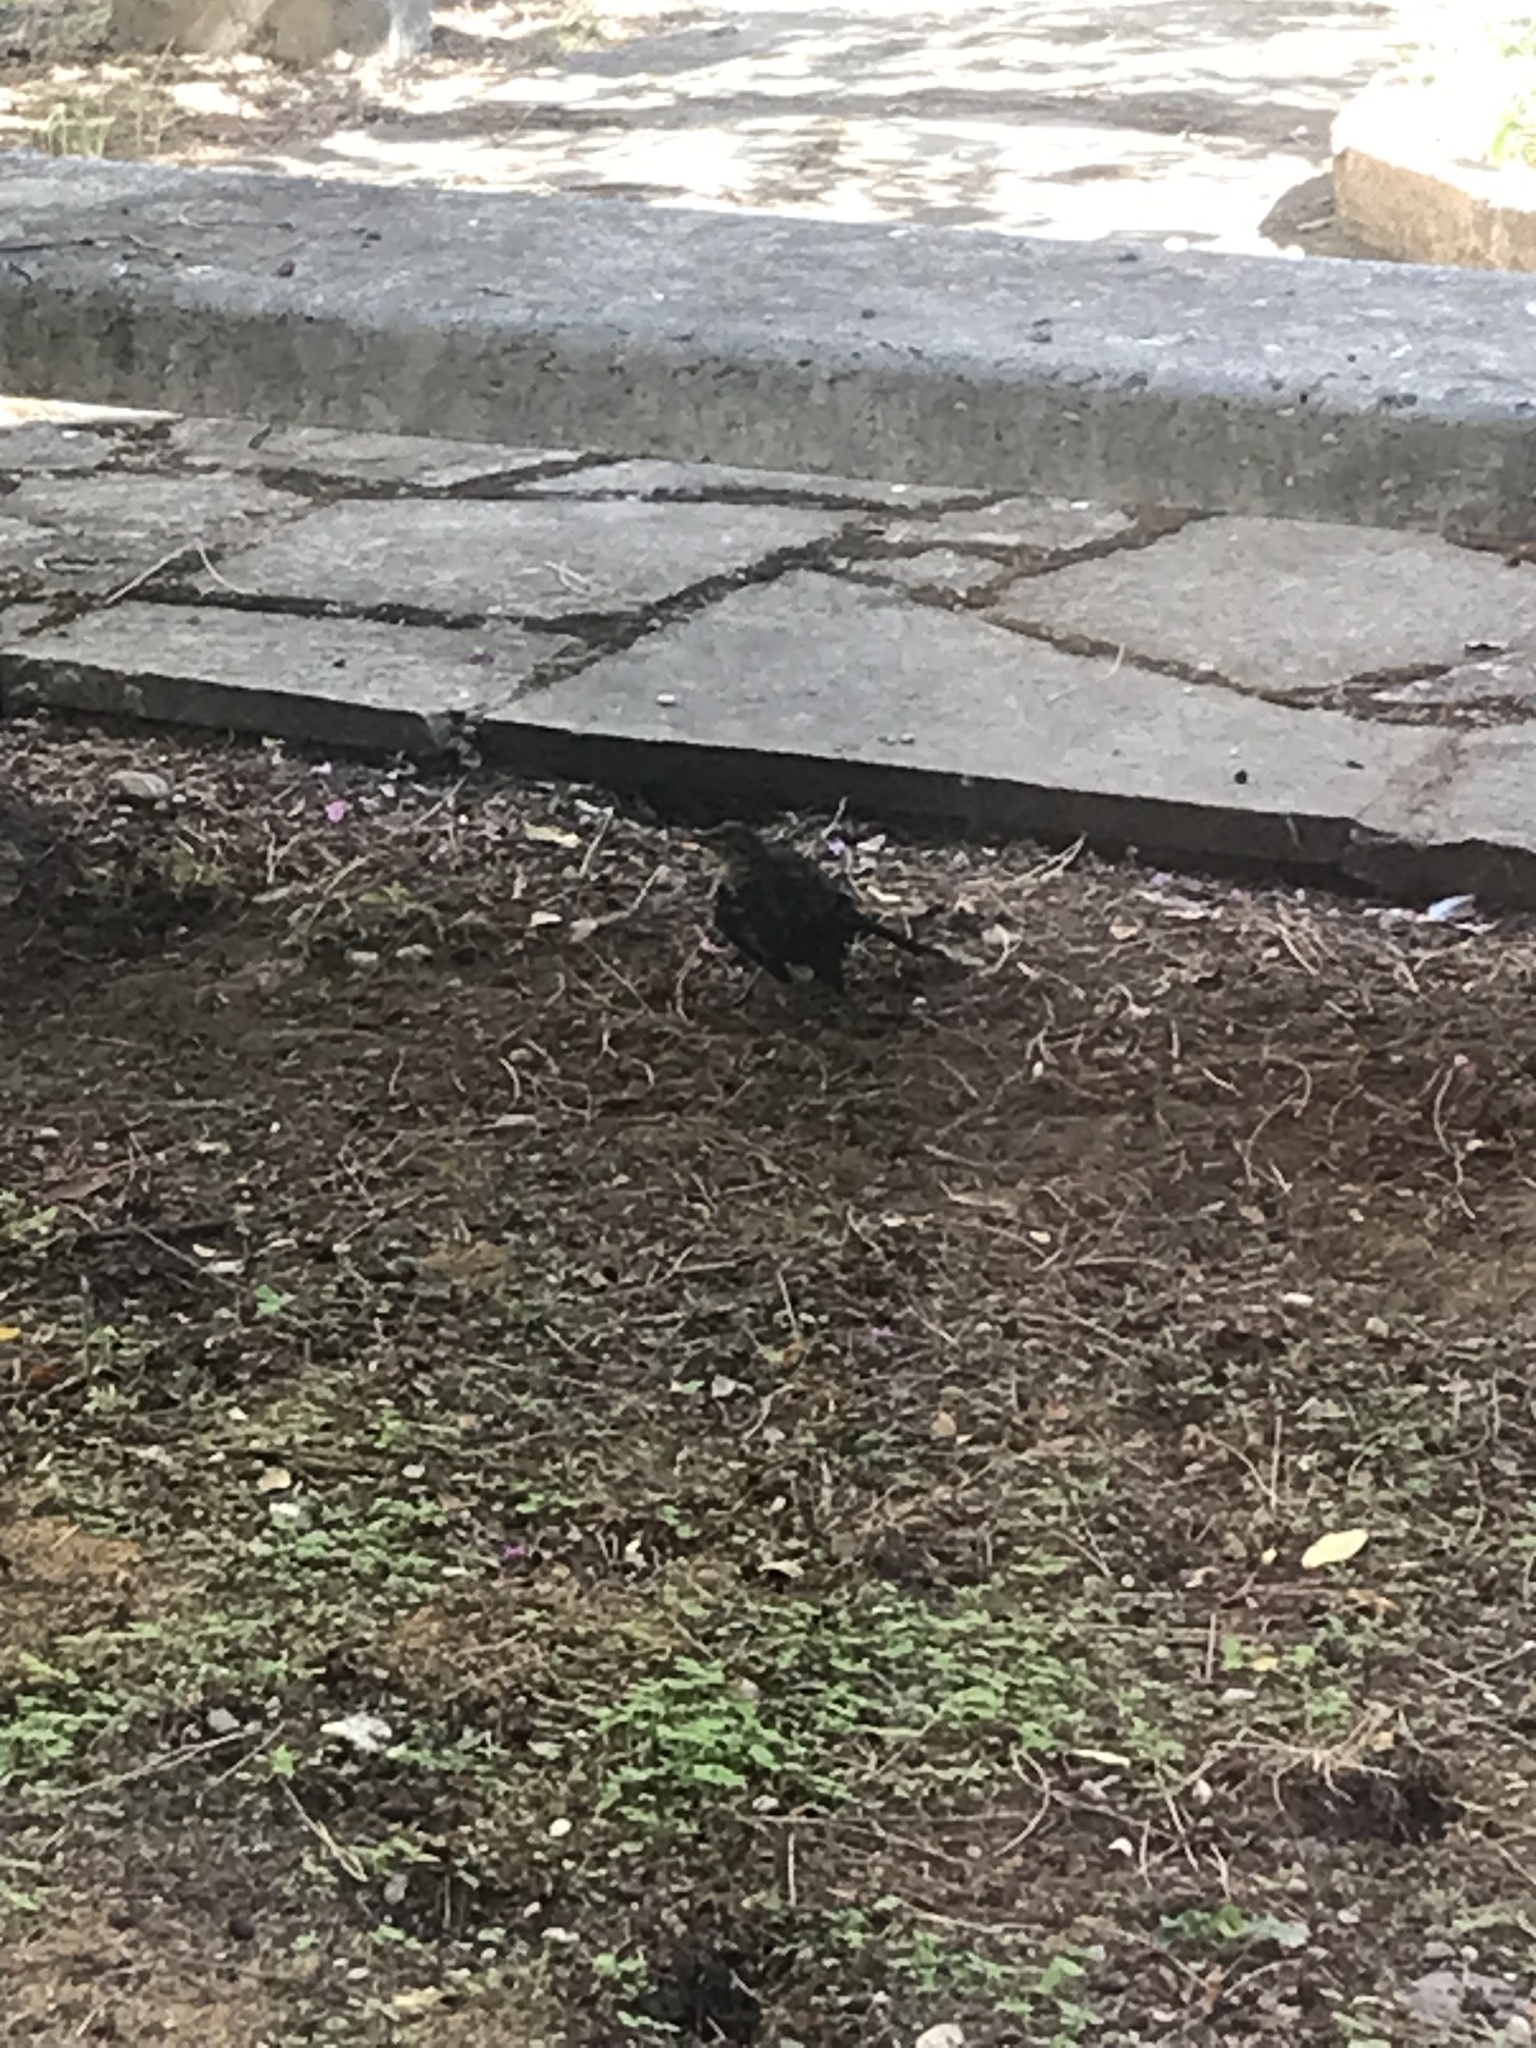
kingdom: Animalia
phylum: Chordata
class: Aves
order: Passeriformes
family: Turdidae
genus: Turdus
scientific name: Turdus merula
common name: Common blackbird
